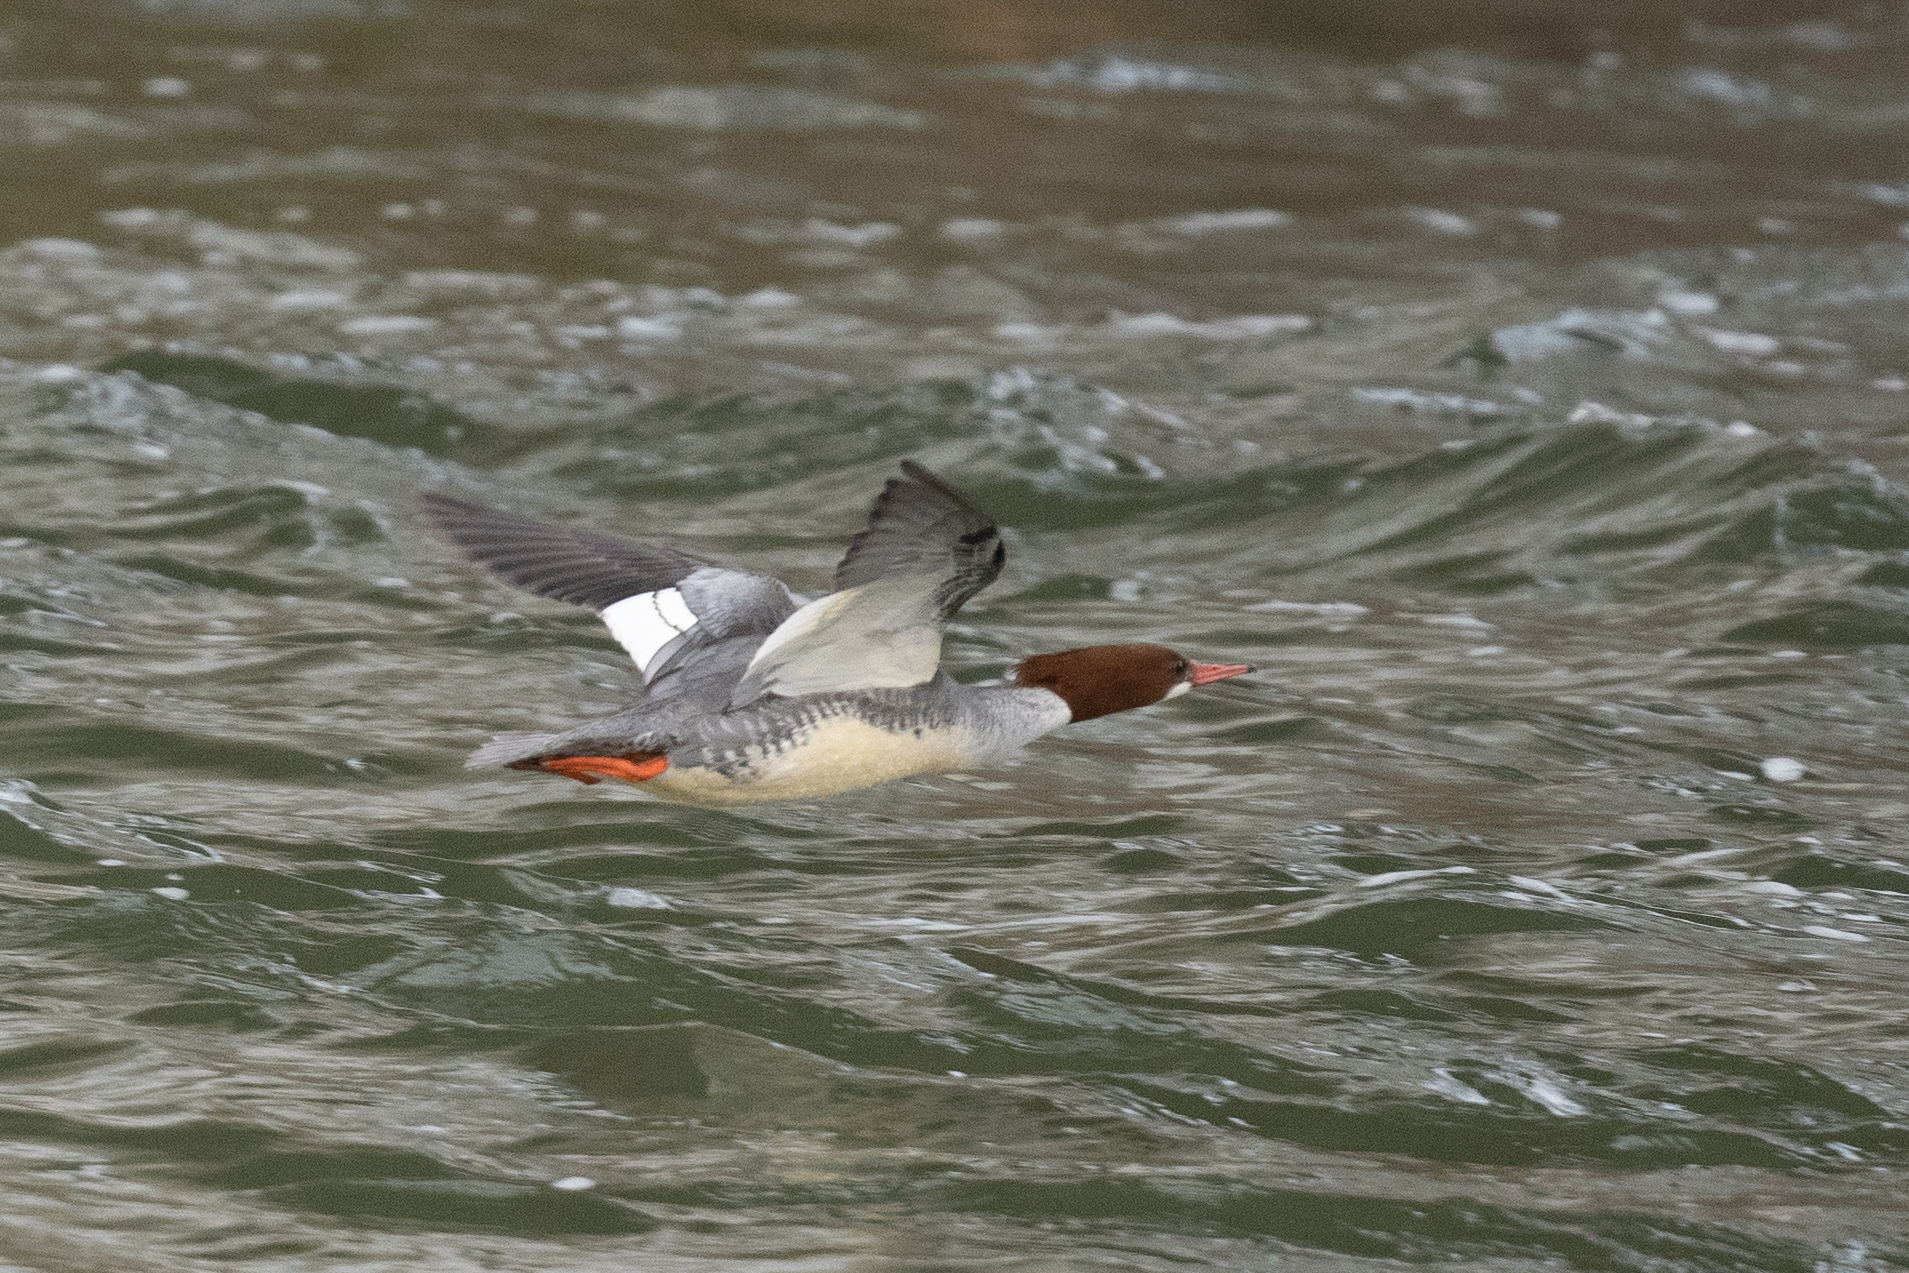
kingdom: Animalia
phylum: Chordata
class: Aves
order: Anseriformes
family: Anatidae
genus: Mergus
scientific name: Mergus merganser
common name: Common merganser
